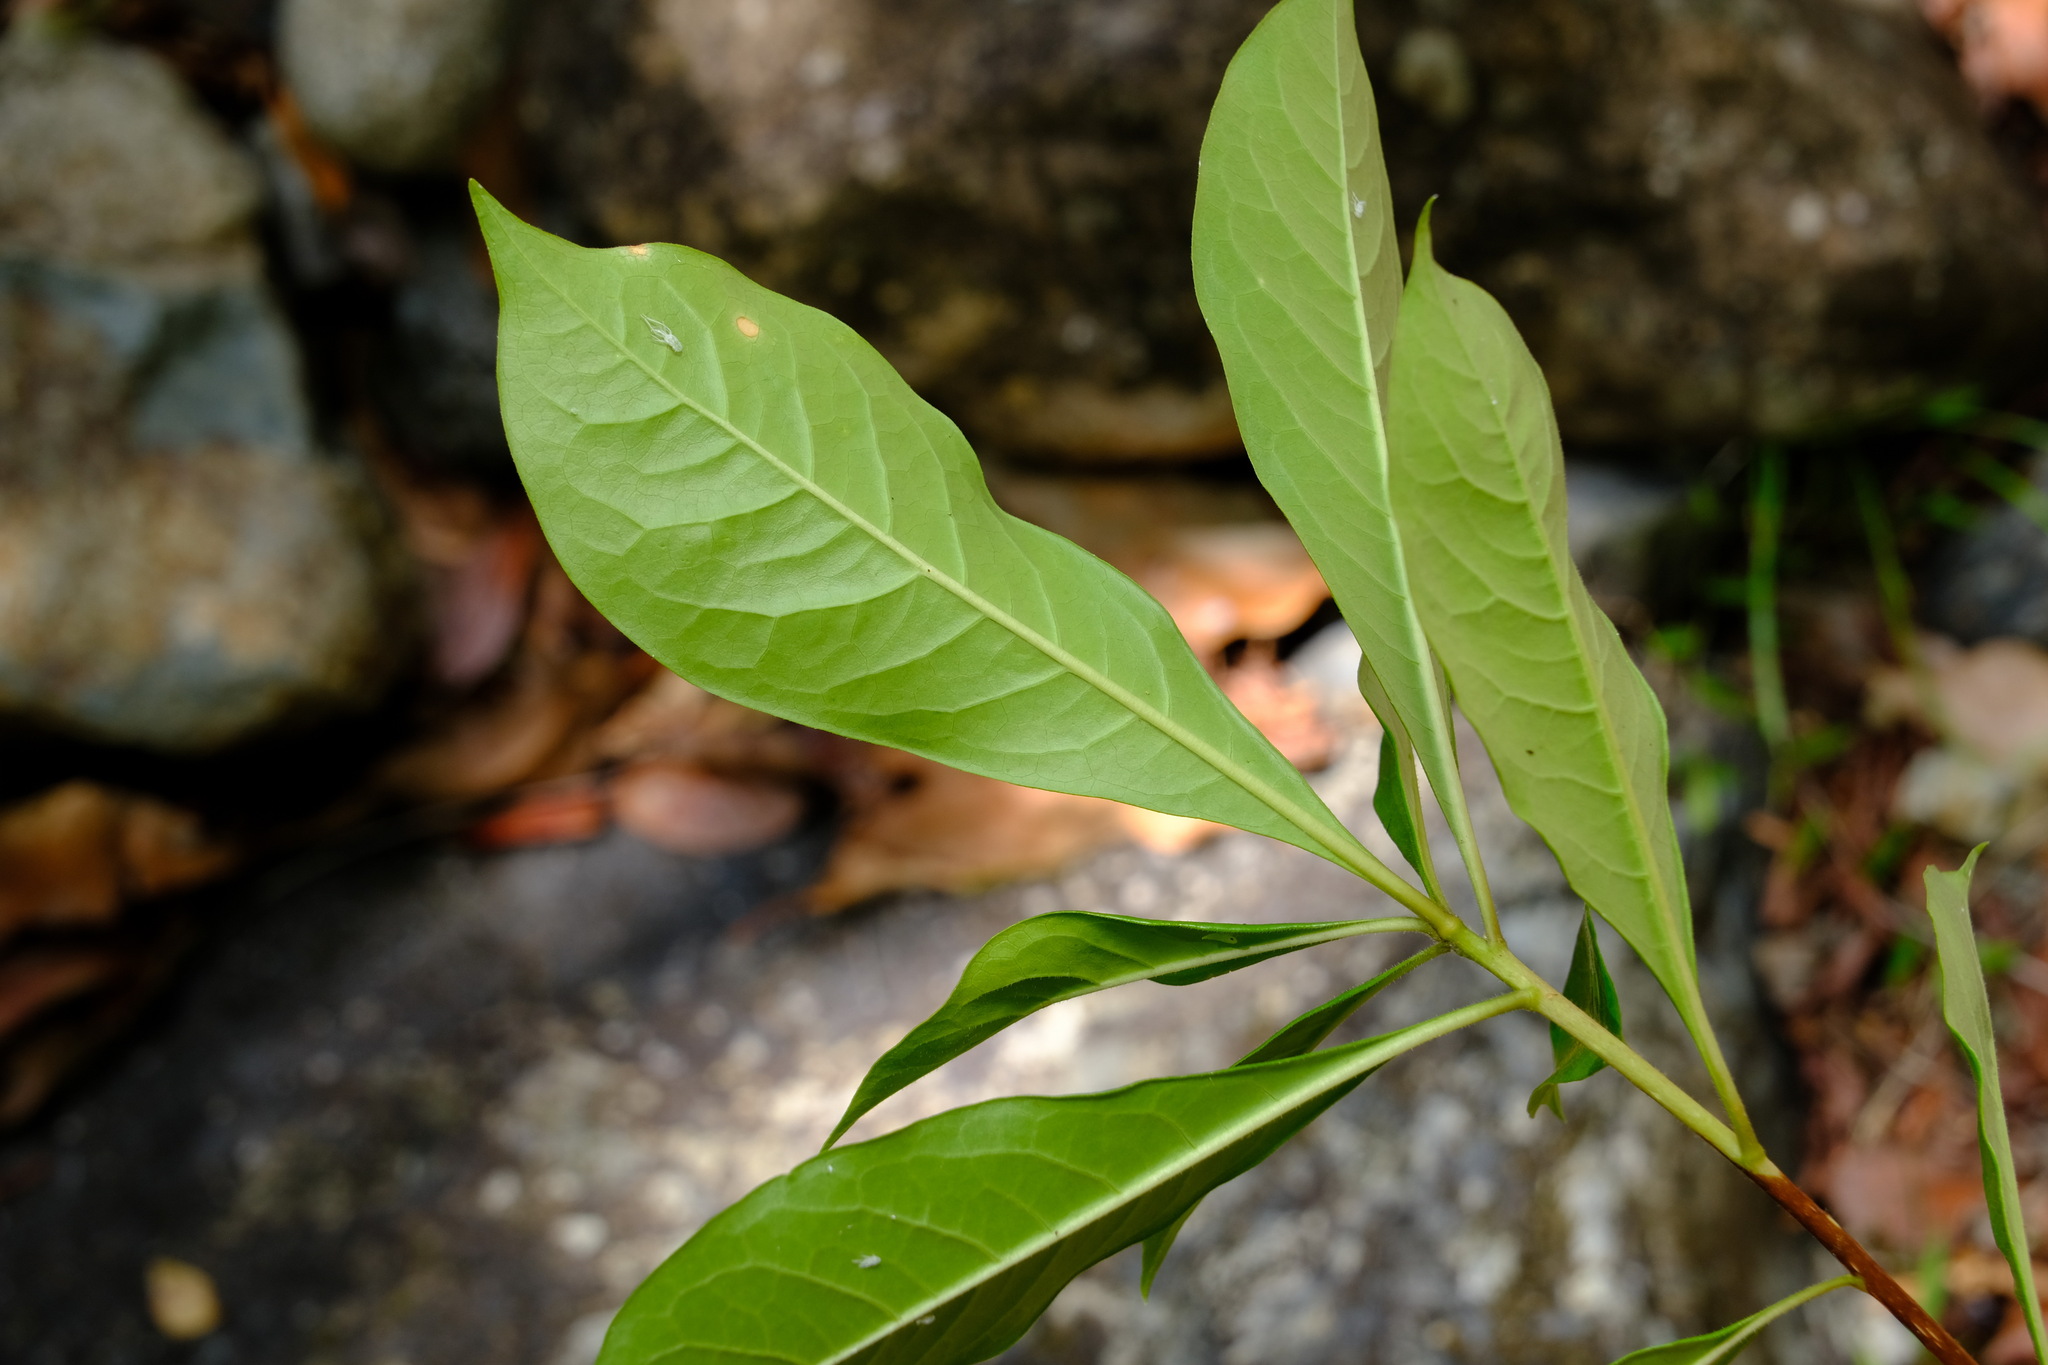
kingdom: Plantae
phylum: Tracheophyta
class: Magnoliopsida
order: Apiales
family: Pittosporaceae
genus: Hymenosporum
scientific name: Hymenosporum flavum
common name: Native frangipani
